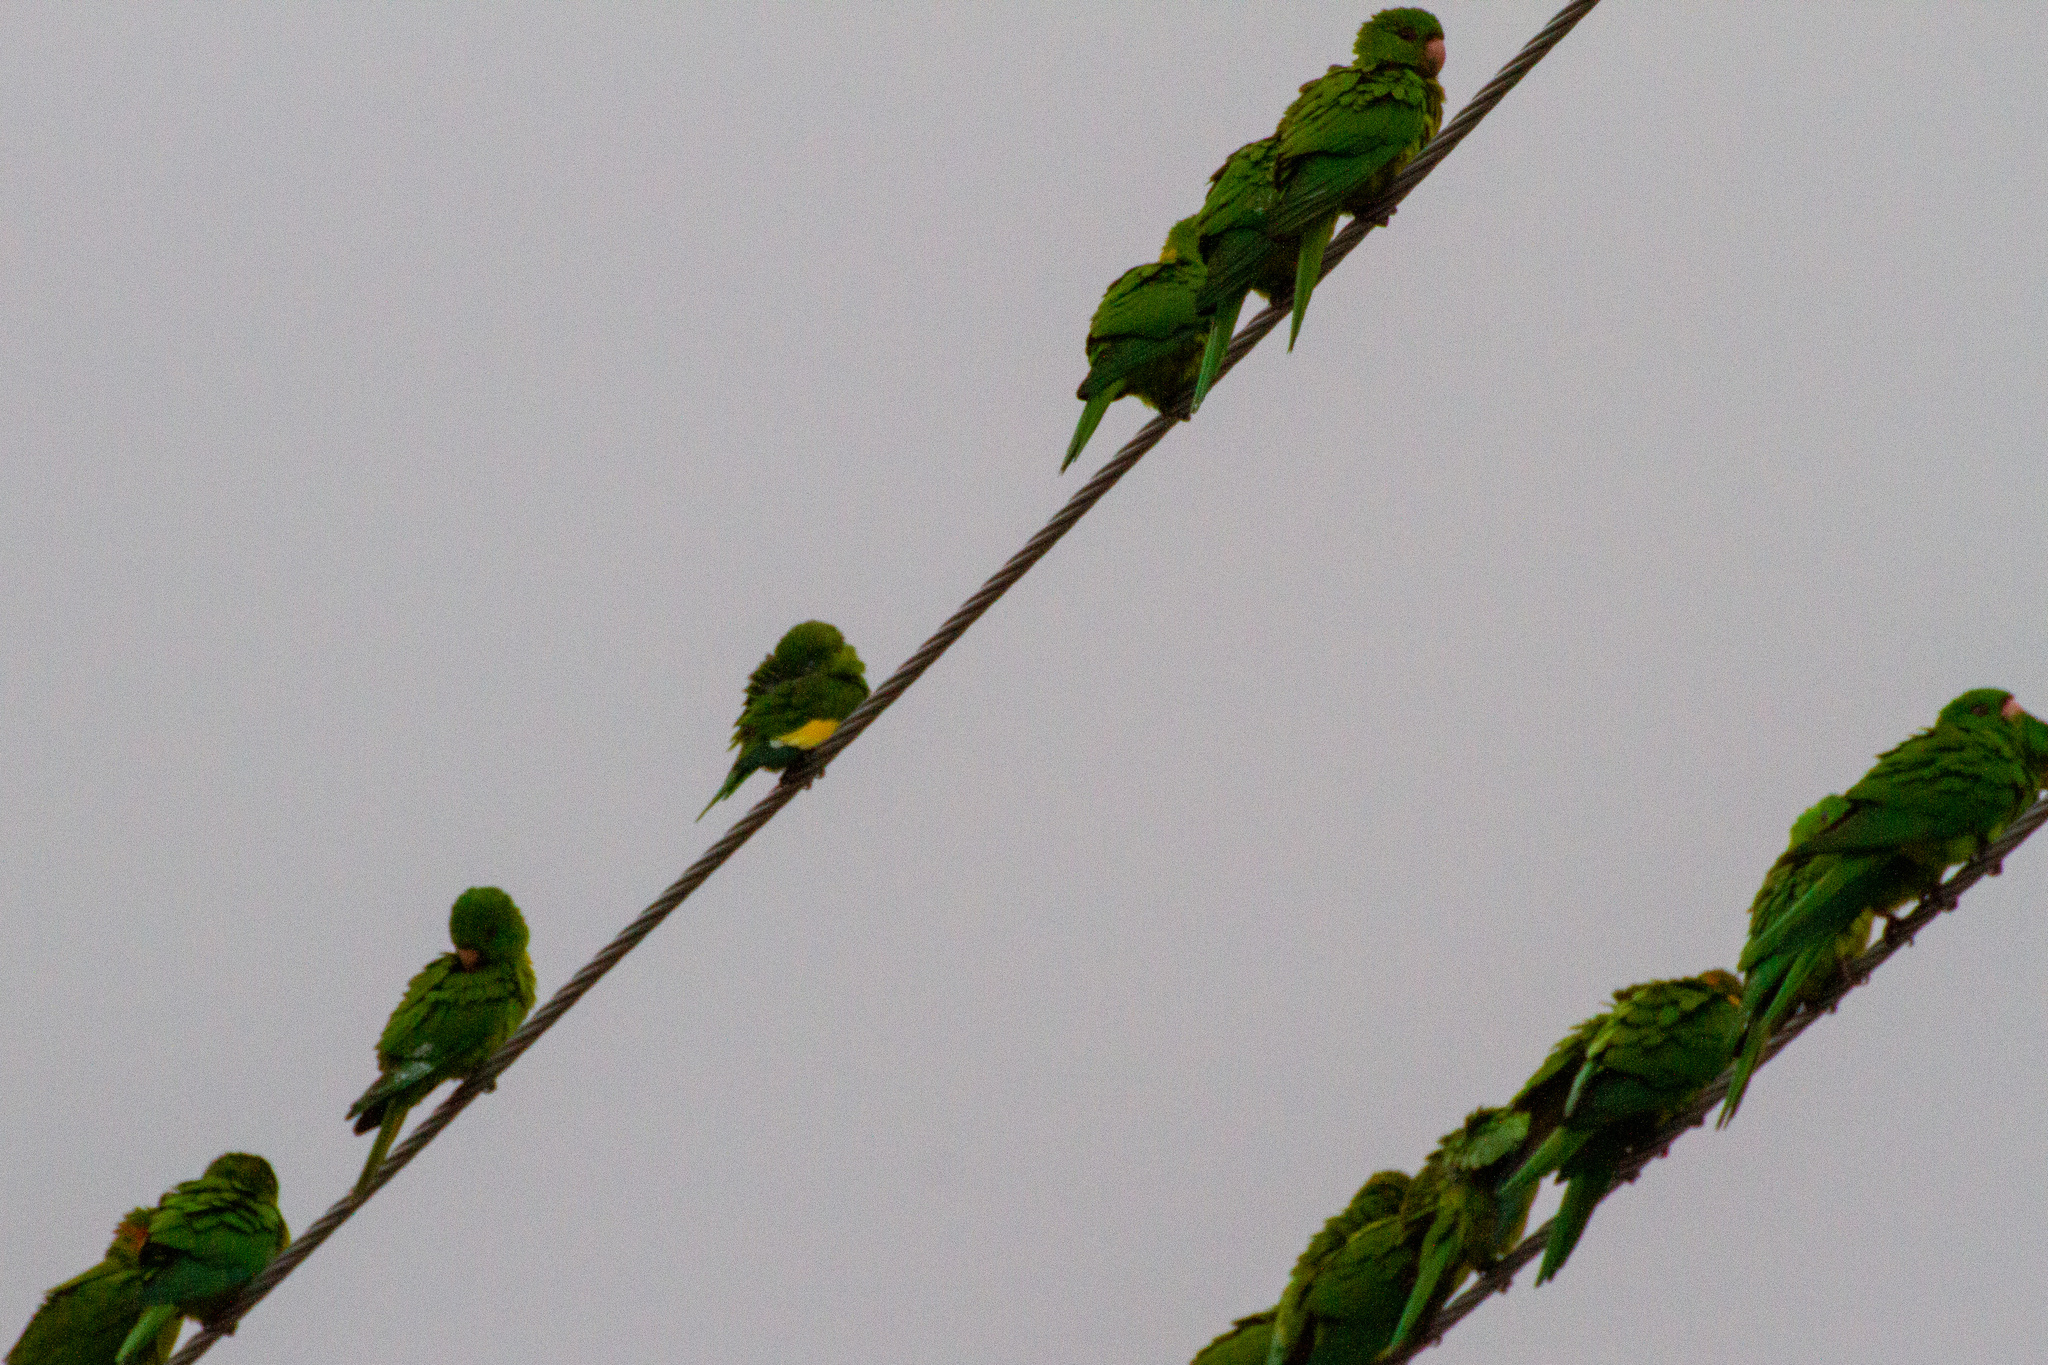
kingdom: Animalia
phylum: Chordata
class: Aves
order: Psittaciformes
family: Psittacidae
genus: Brotogeris
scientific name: Brotogeris versicolurus
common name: White-winged parakeet
